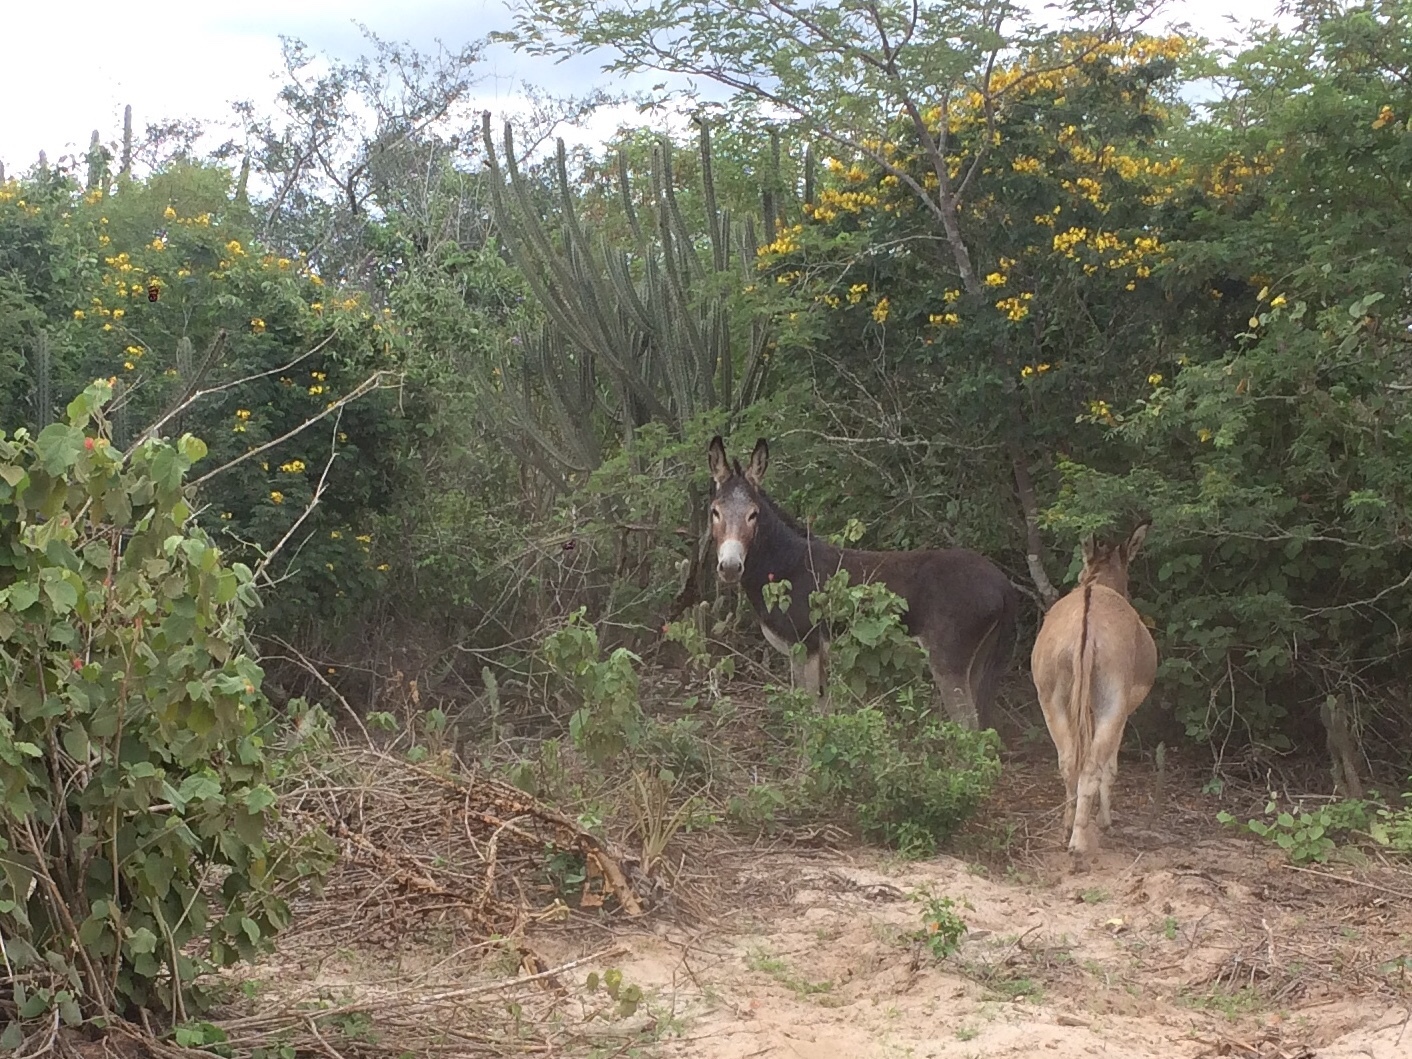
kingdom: Animalia
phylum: Chordata
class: Mammalia
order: Perissodactyla
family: Equidae
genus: Equus
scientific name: Equus asinus
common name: Ass
